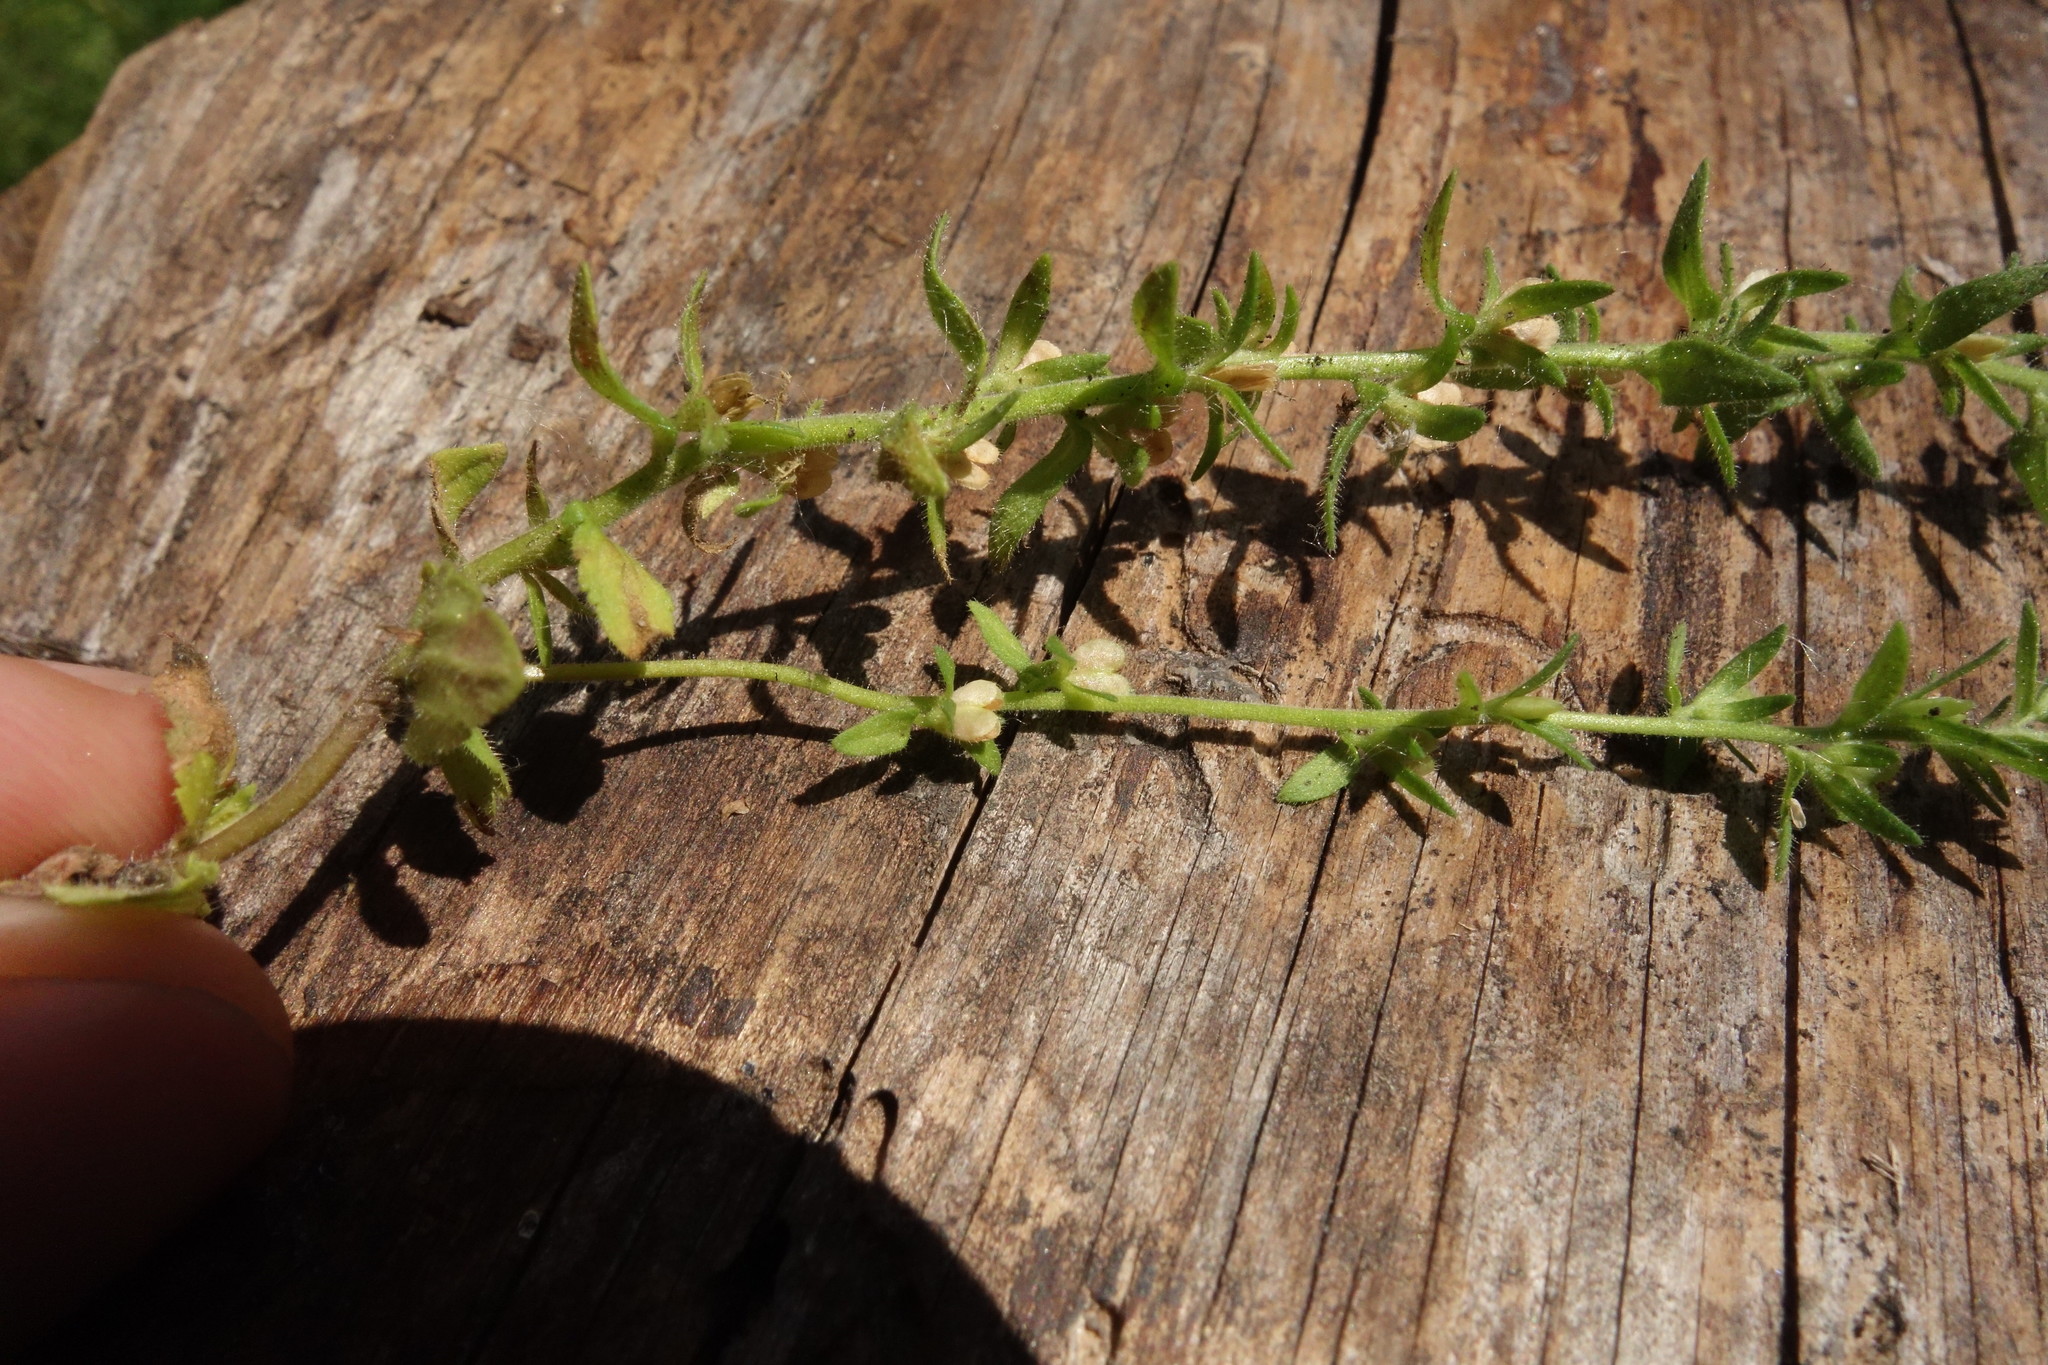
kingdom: Plantae
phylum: Tracheophyta
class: Magnoliopsida
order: Lamiales
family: Plantaginaceae
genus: Veronica
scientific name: Veronica arvensis
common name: Corn speedwell
